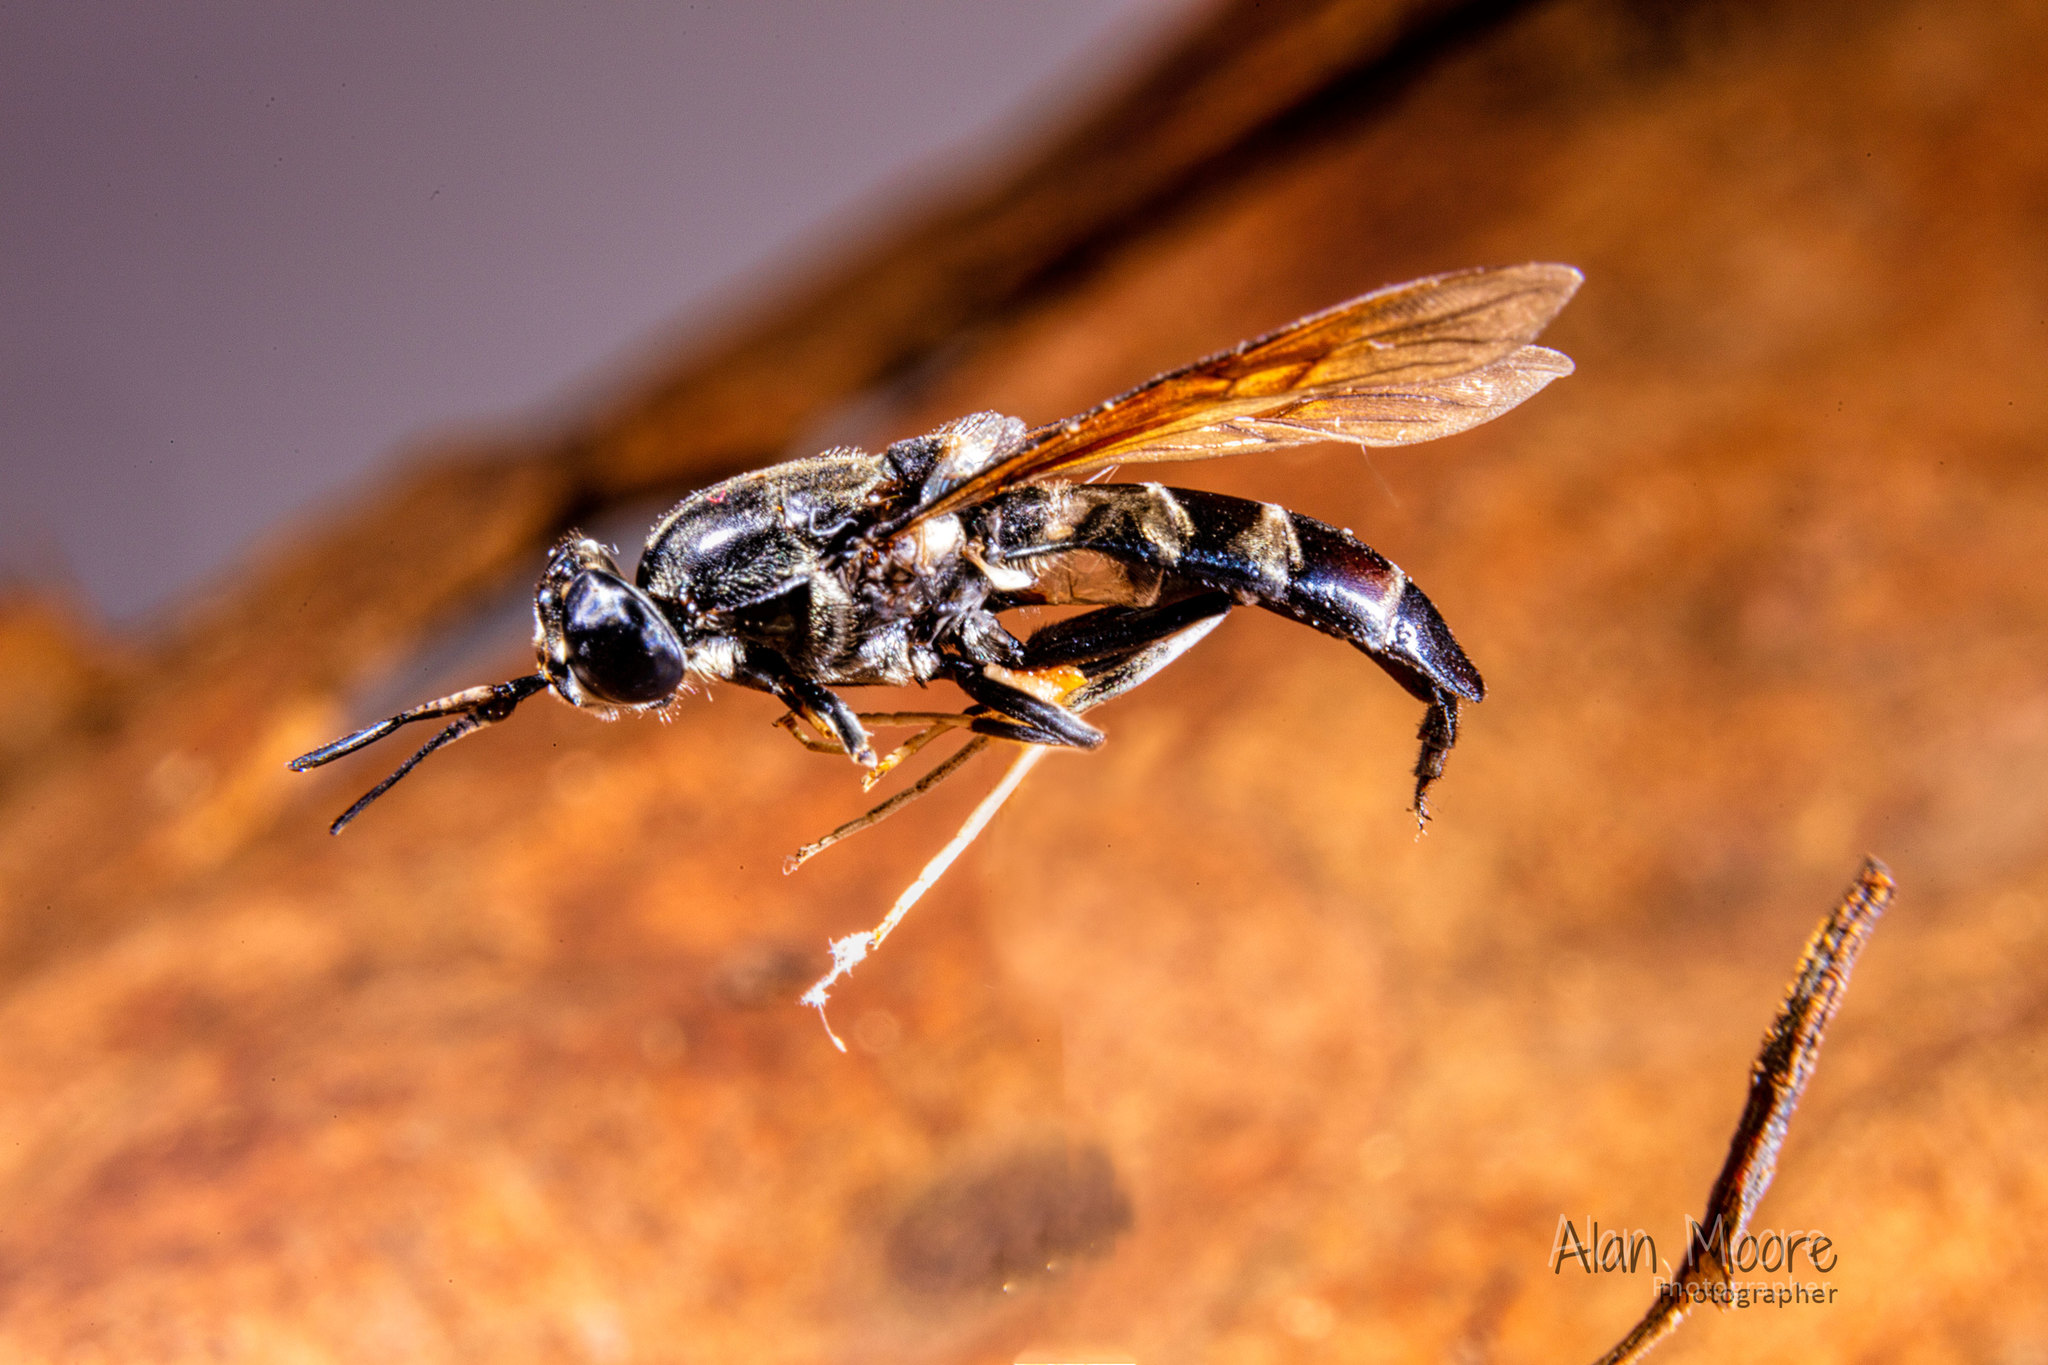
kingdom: Animalia
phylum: Arthropoda
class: Insecta
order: Diptera
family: Stratiomyidae
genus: Hermetia
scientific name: Hermetia illucens
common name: Black soldier fly
